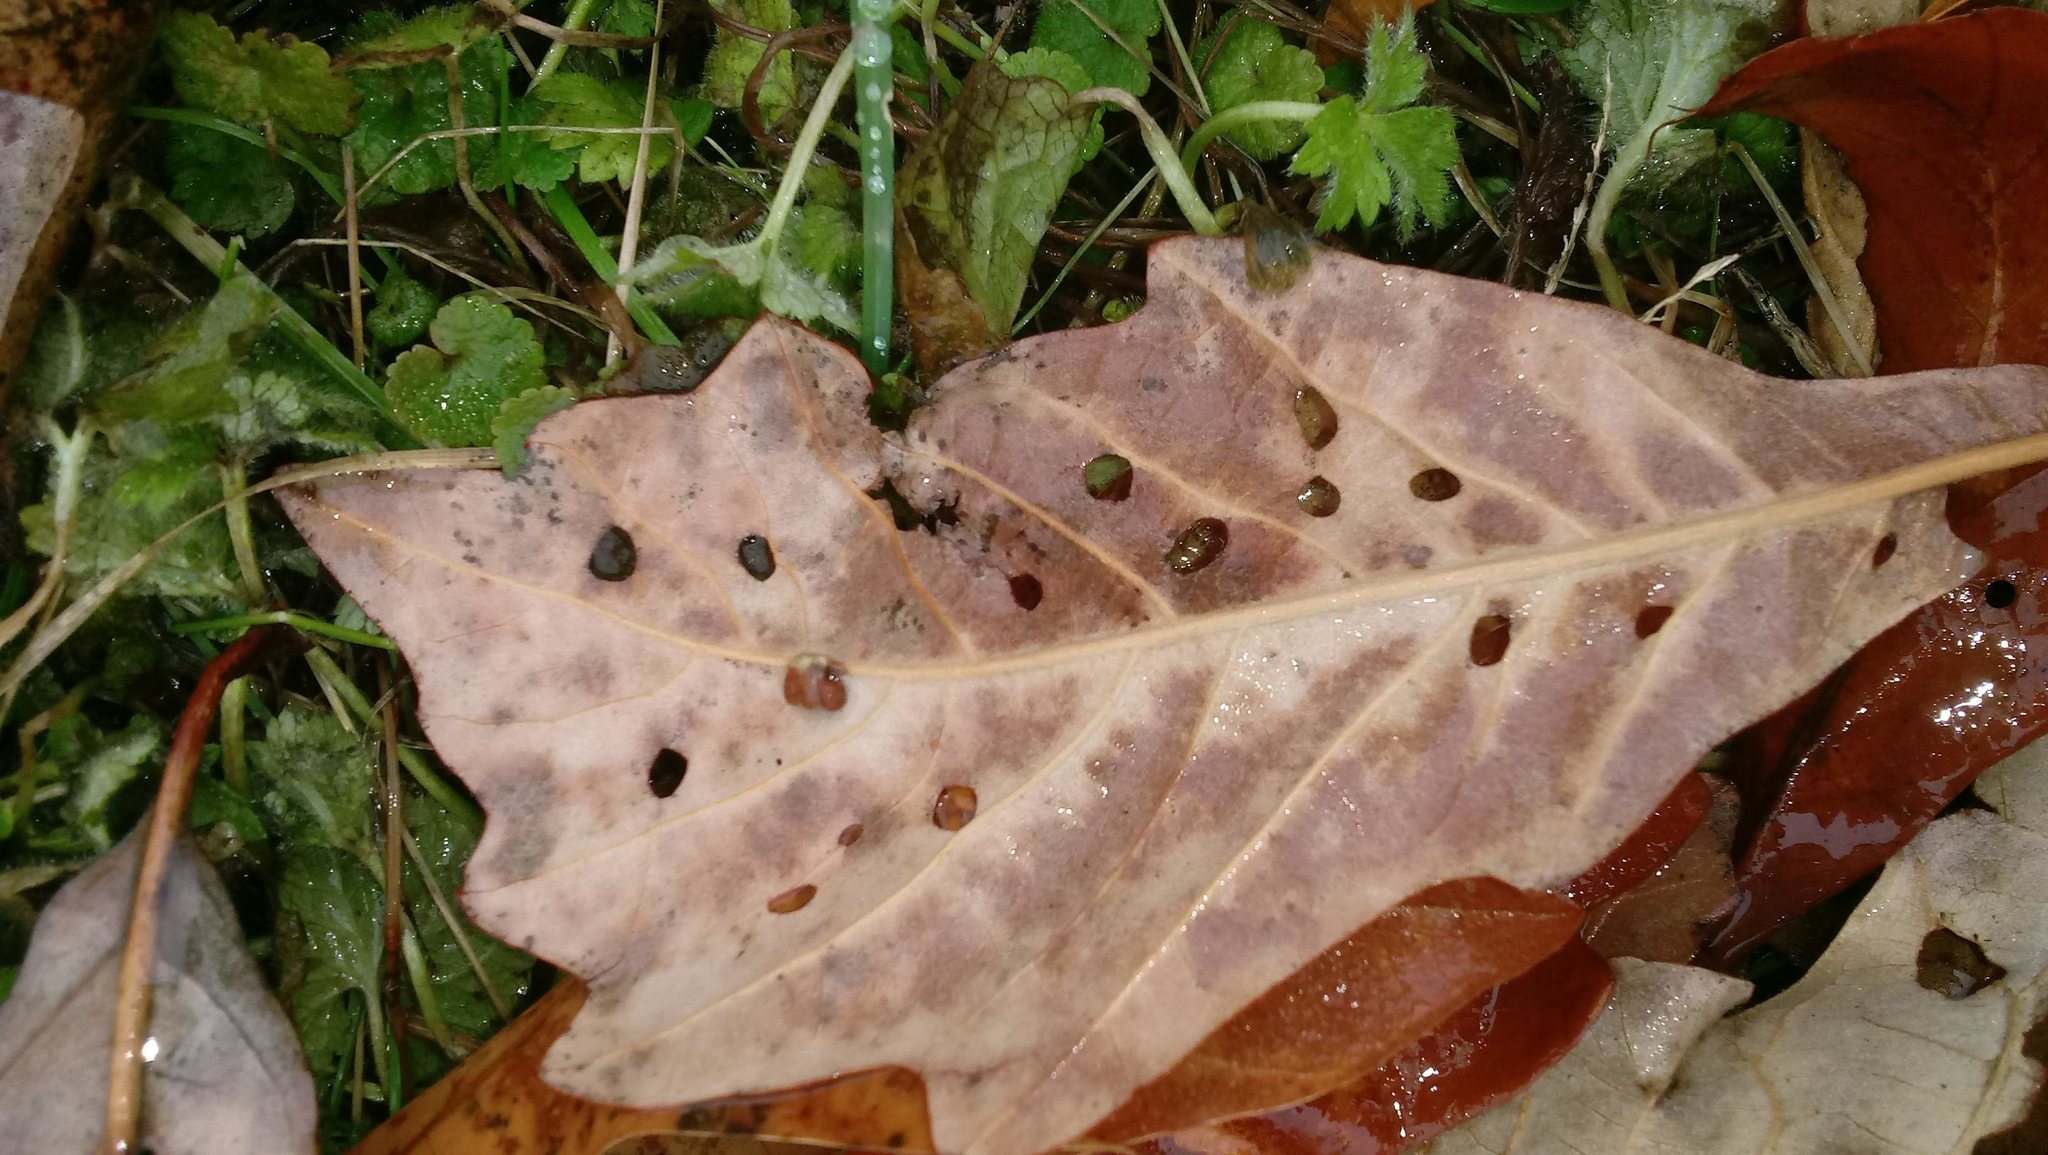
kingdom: Animalia
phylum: Arthropoda
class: Insecta
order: Hymenoptera
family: Cynipidae
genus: Andricus
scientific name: Andricus Druon ignotum
